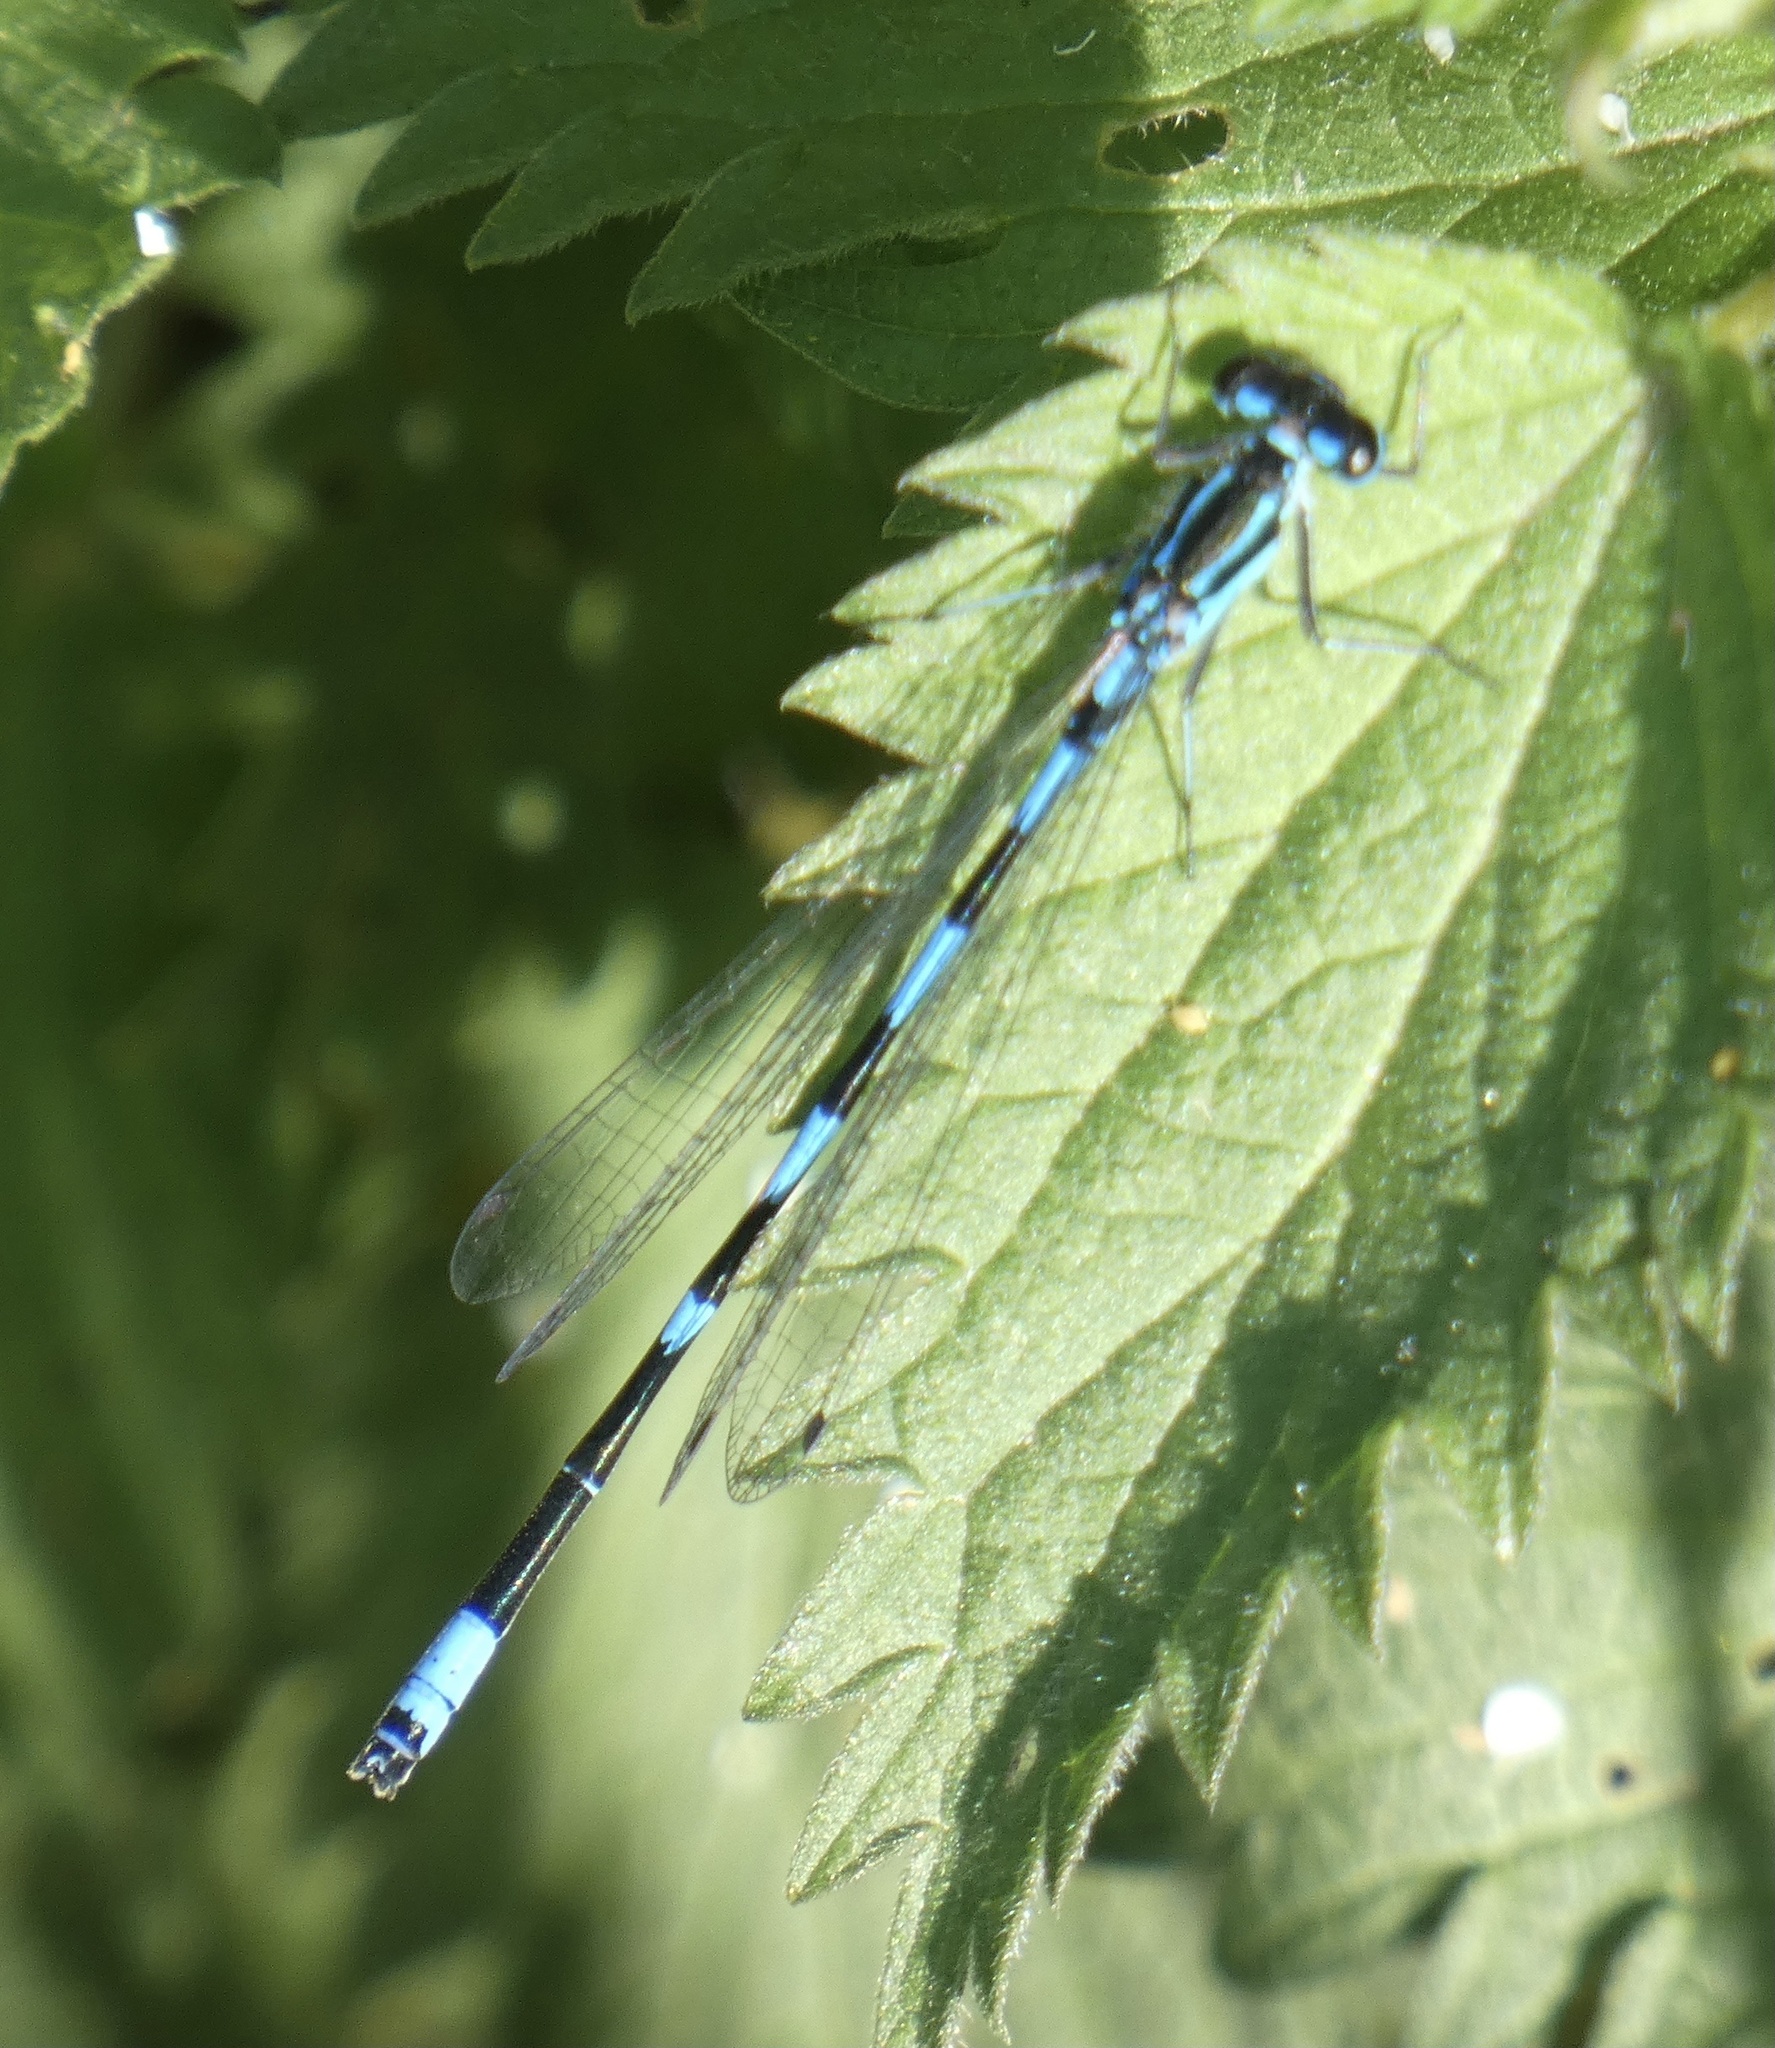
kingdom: Animalia
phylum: Arthropoda
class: Insecta
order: Odonata
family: Coenagrionidae
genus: Coenagrion
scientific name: Coenagrion pulchellum
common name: Variable bluet
